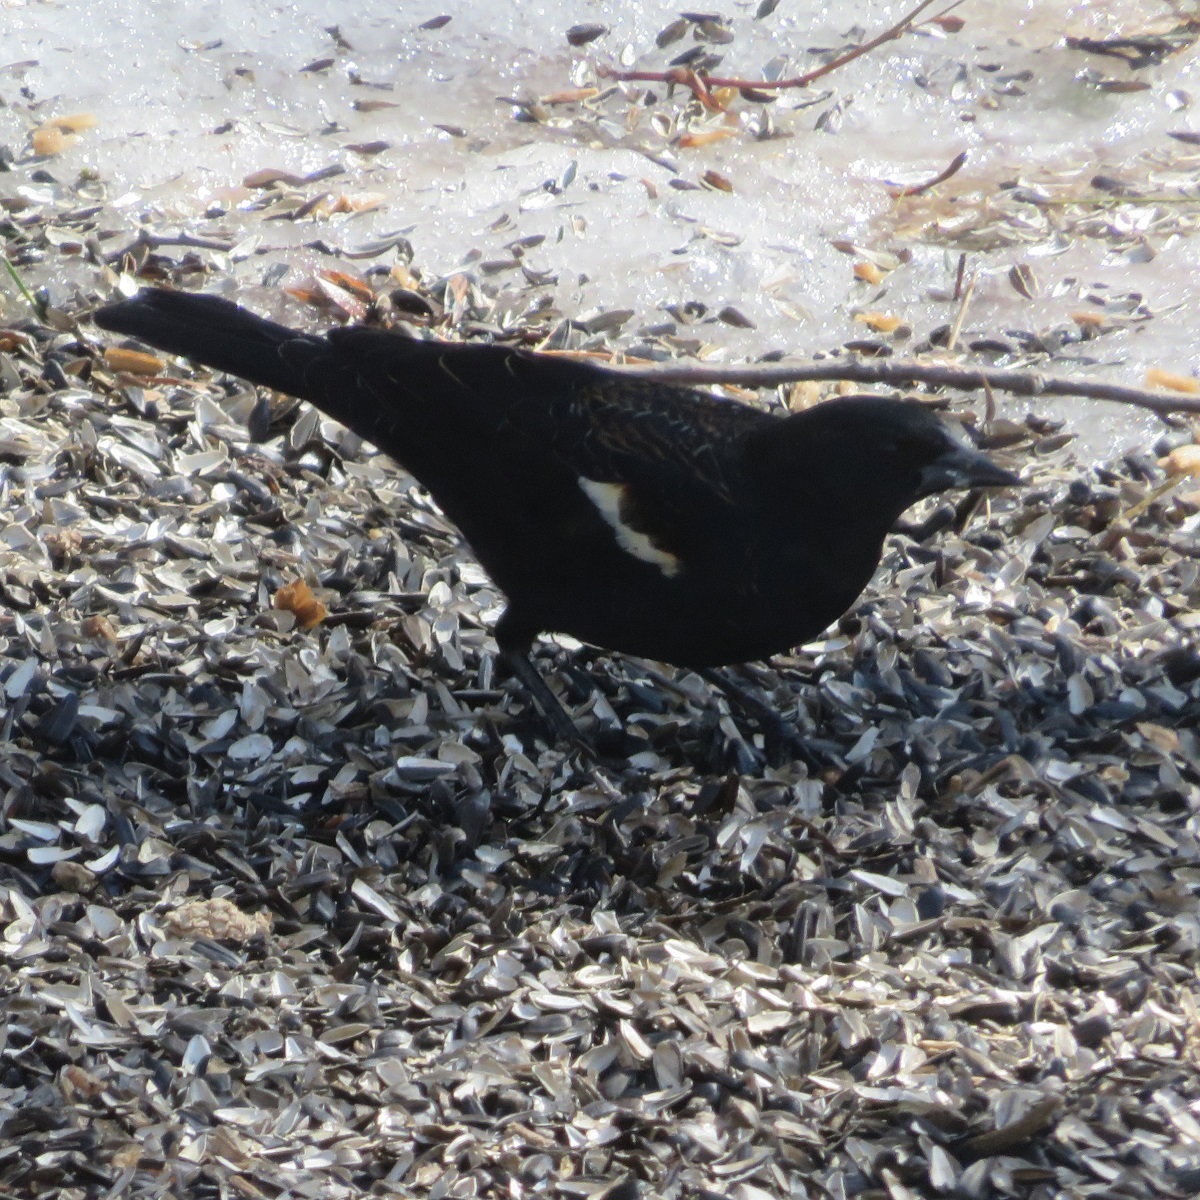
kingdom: Animalia
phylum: Chordata
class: Aves
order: Passeriformes
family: Icteridae
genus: Agelaius
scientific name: Agelaius phoeniceus
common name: Red-winged blackbird
